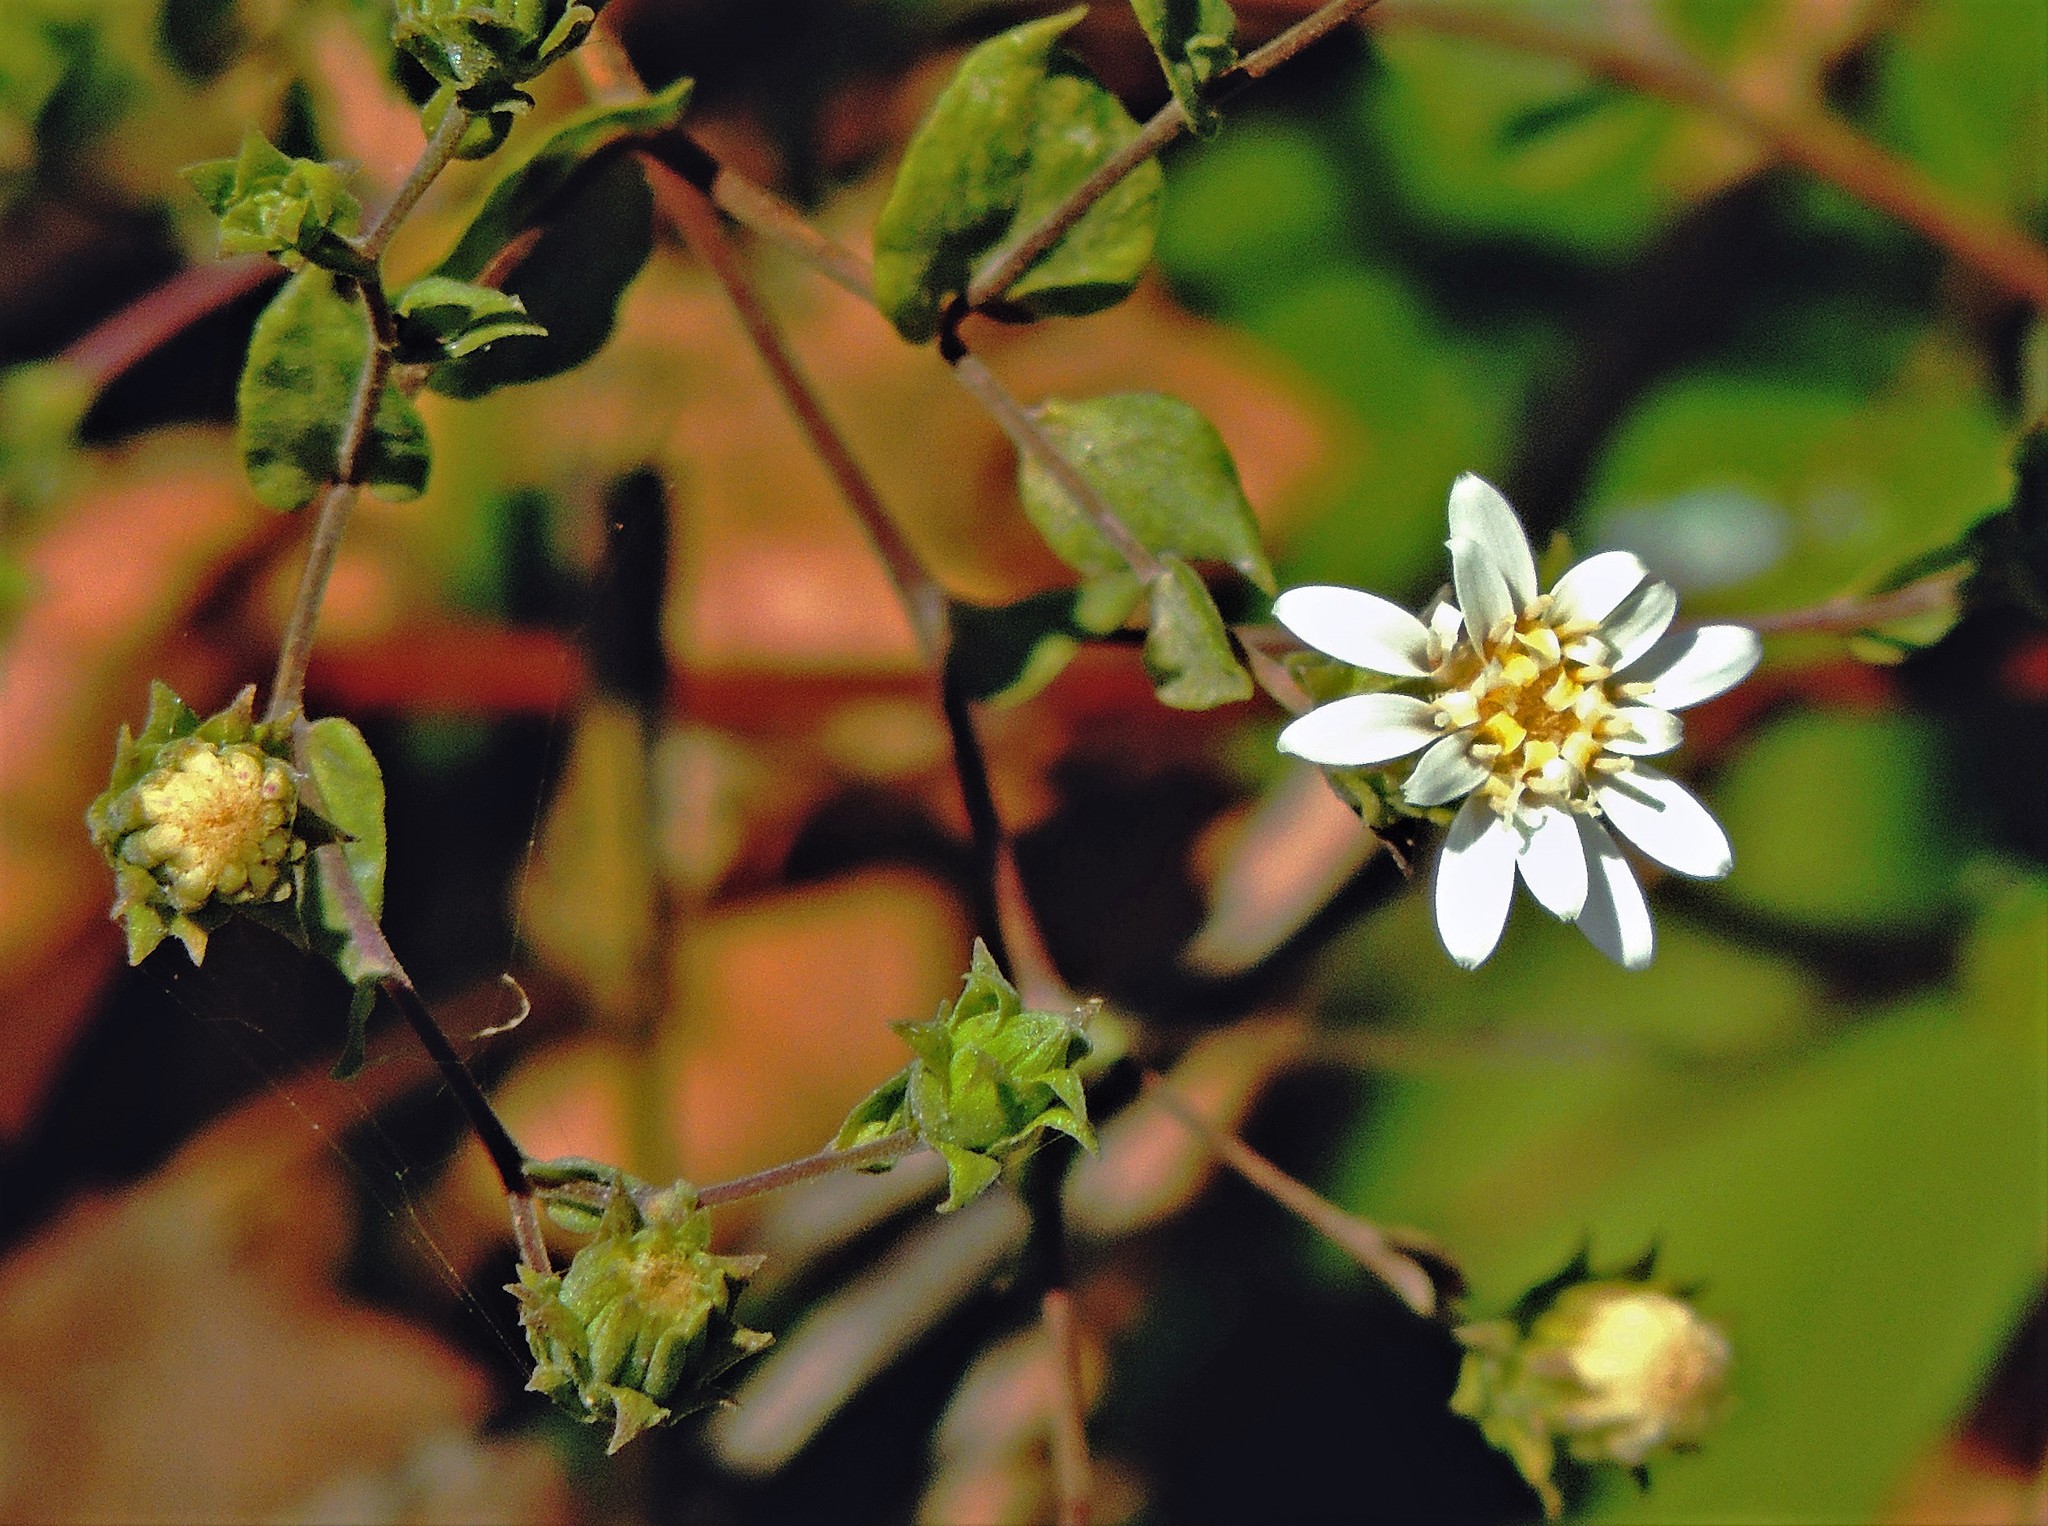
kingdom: Plantae
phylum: Tracheophyta
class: Magnoliopsida
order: Asterales
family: Asteraceae
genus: Jungia
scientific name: Jungia polita
